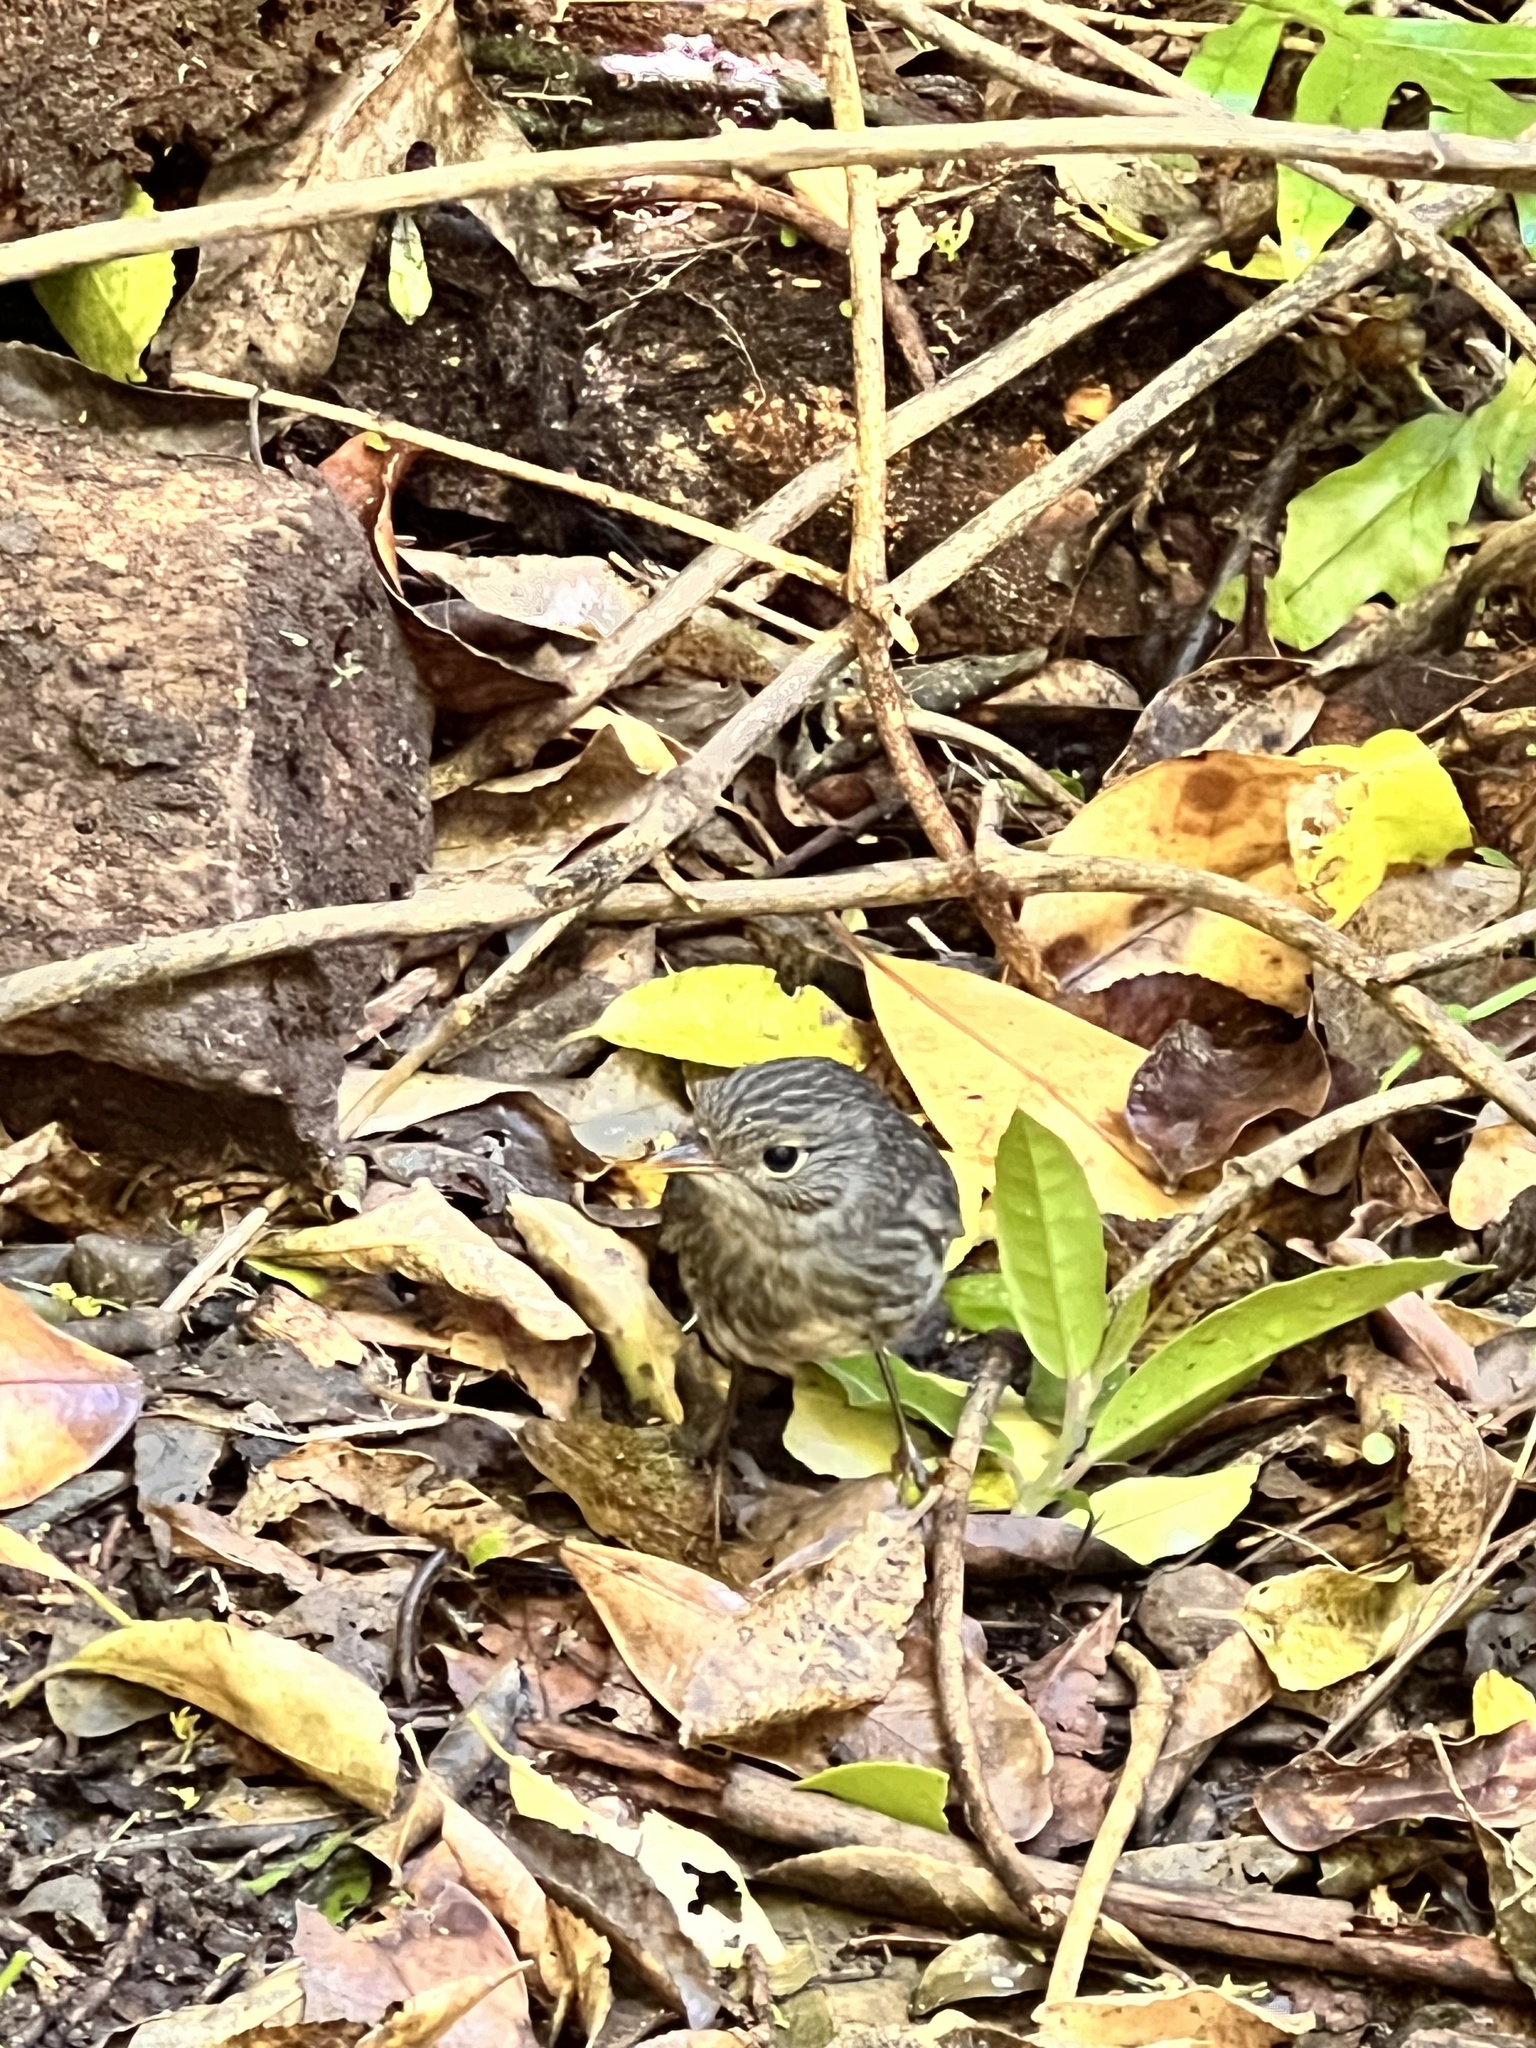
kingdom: Animalia
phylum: Chordata
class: Aves
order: Passeriformes
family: Petroicidae
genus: Petroica
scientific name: Petroica australis
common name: New zealand robin
